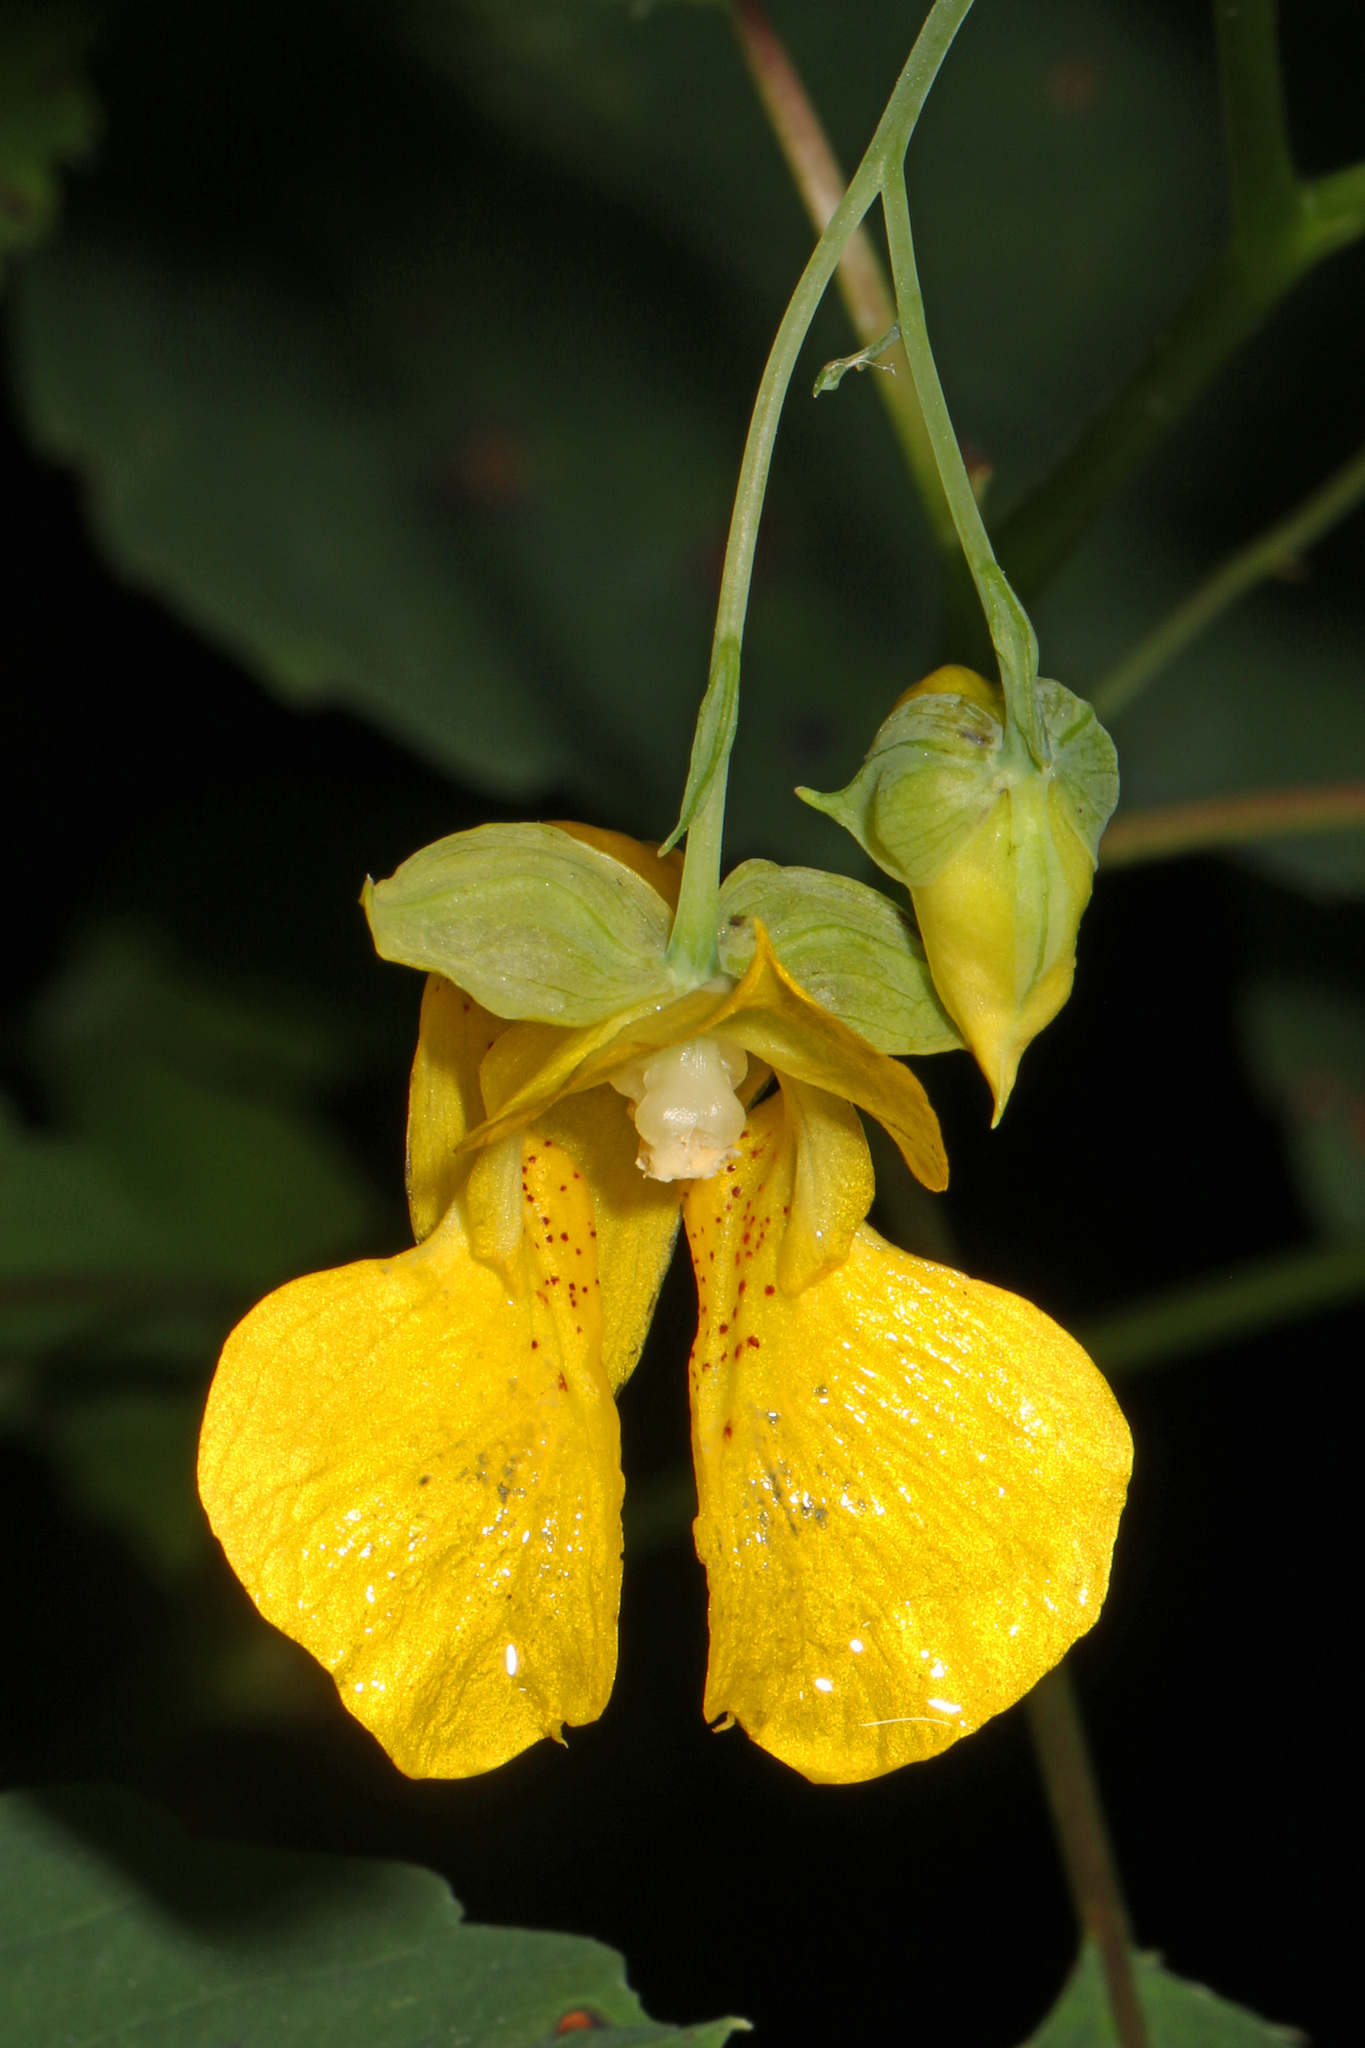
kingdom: Plantae
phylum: Tracheophyta
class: Magnoliopsida
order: Ericales
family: Balsaminaceae
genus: Impatiens
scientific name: Impatiens pallida
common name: Pale snapweed
